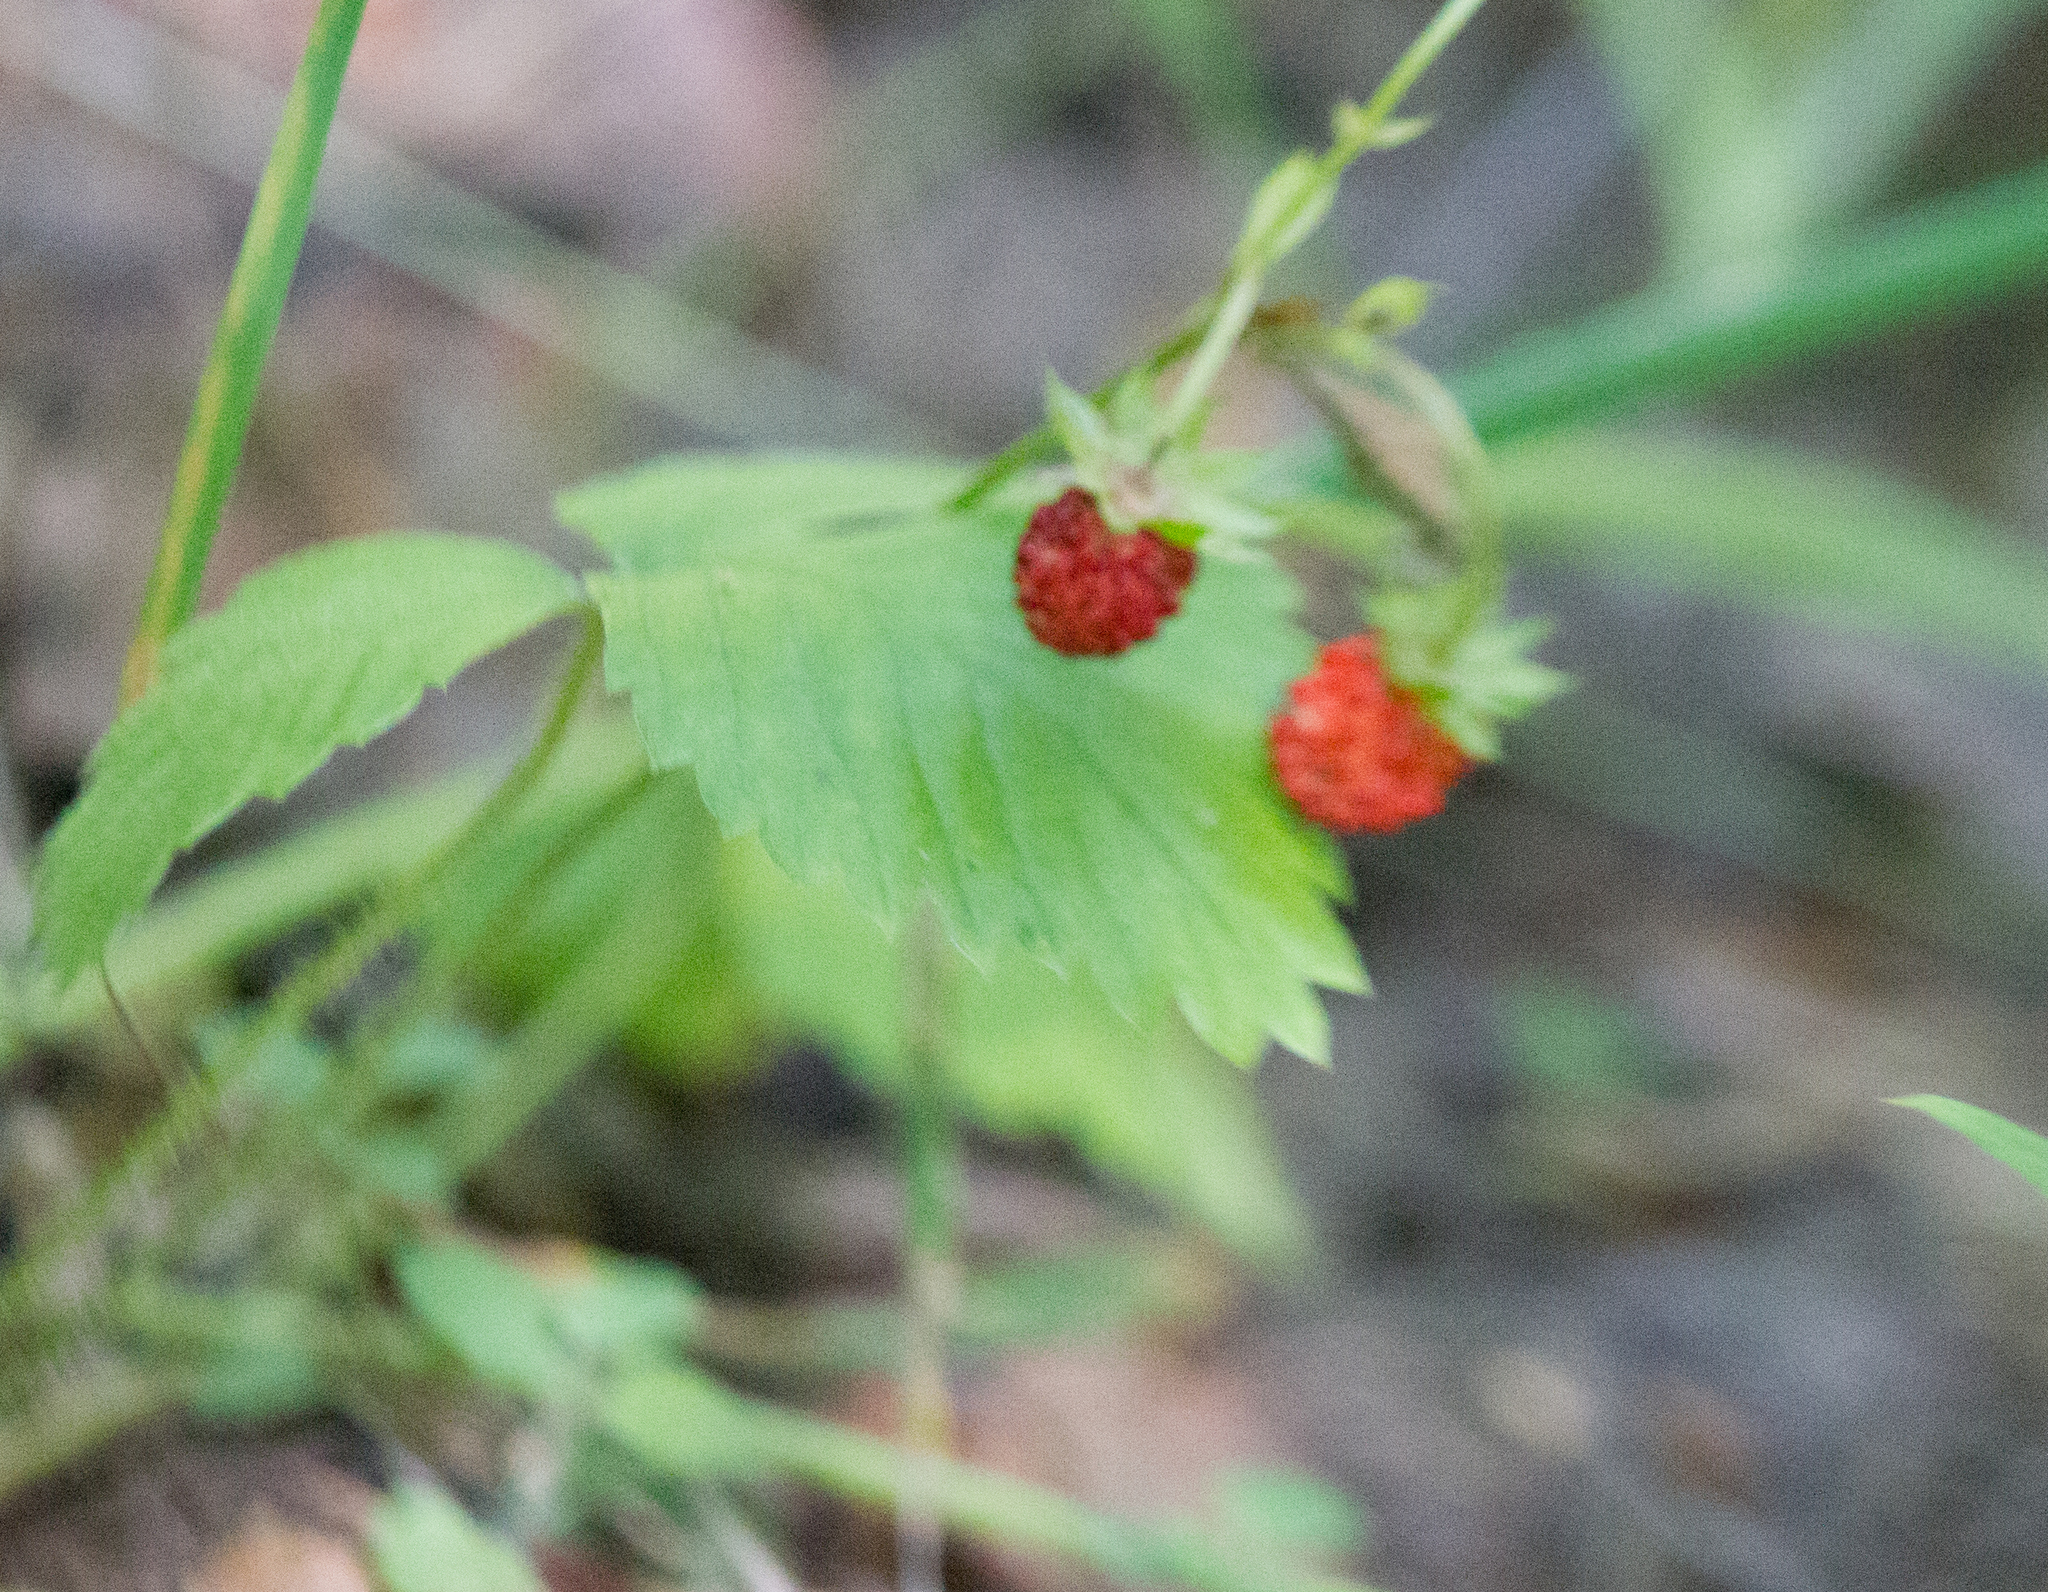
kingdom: Plantae
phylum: Tracheophyta
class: Magnoliopsida
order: Rosales
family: Rosaceae
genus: Fragaria
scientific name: Fragaria vesca
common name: Wild strawberry
